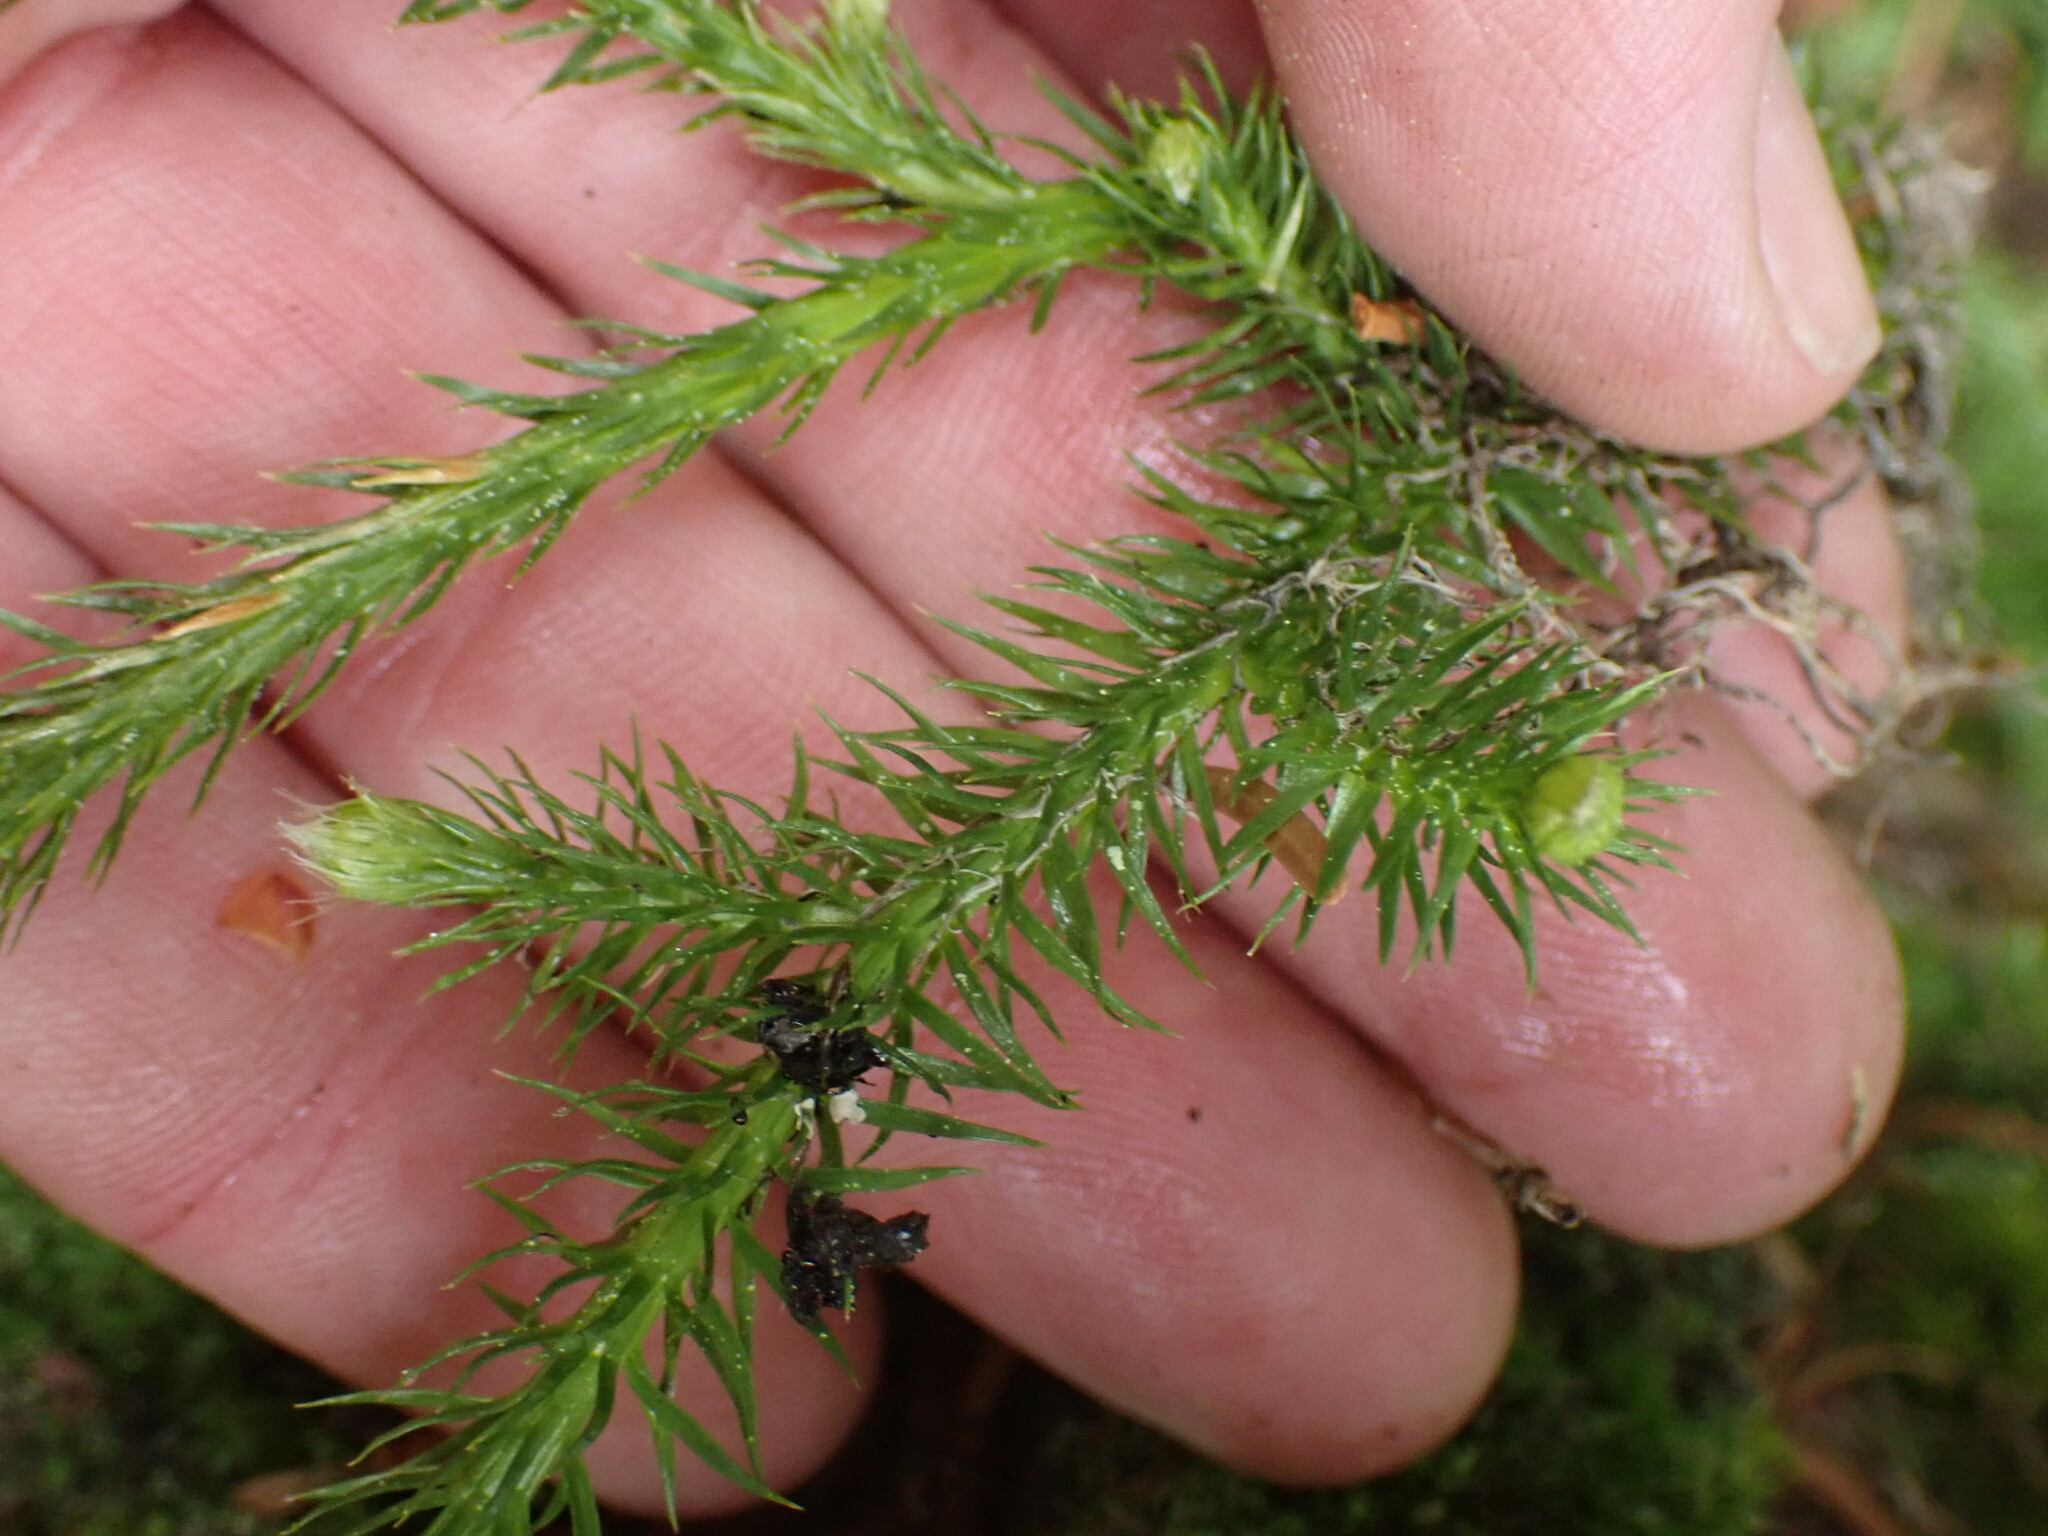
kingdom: Plantae
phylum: Tracheophyta
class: Lycopodiopsida
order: Lycopodiales
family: Lycopodiaceae
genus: Lycopodium
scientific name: Lycopodium clavatum
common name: Stag's-horn clubmoss
